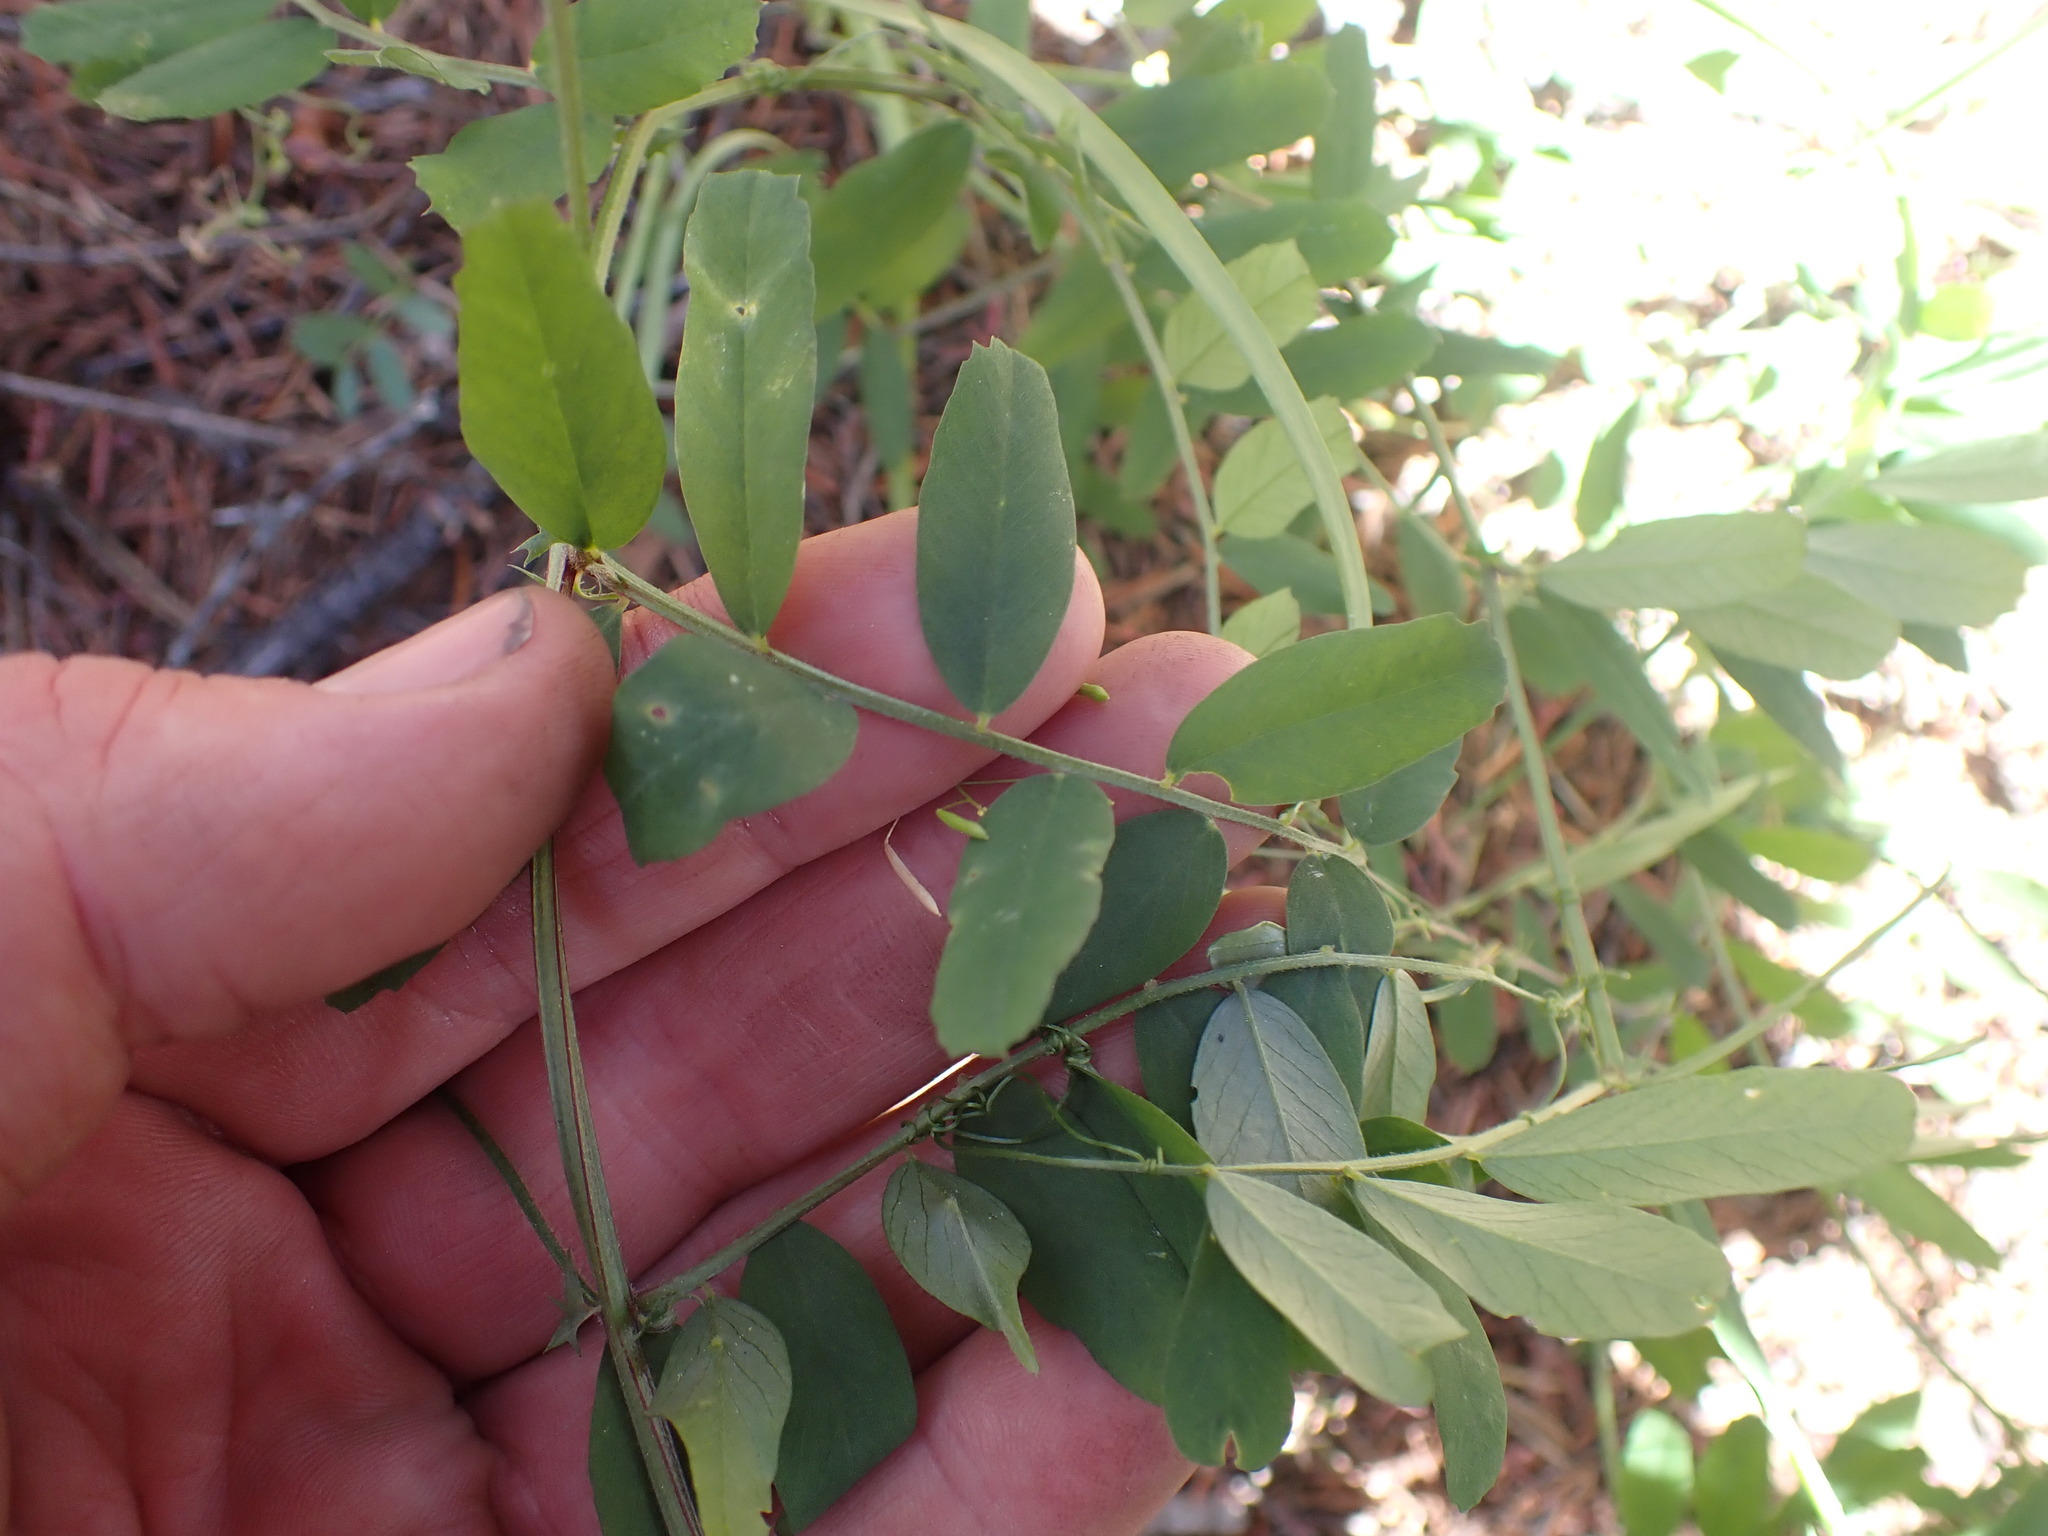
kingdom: Plantae
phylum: Tracheophyta
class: Magnoliopsida
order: Fabales
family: Fabaceae
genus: Vicia
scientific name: Vicia americana
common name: American vetch
